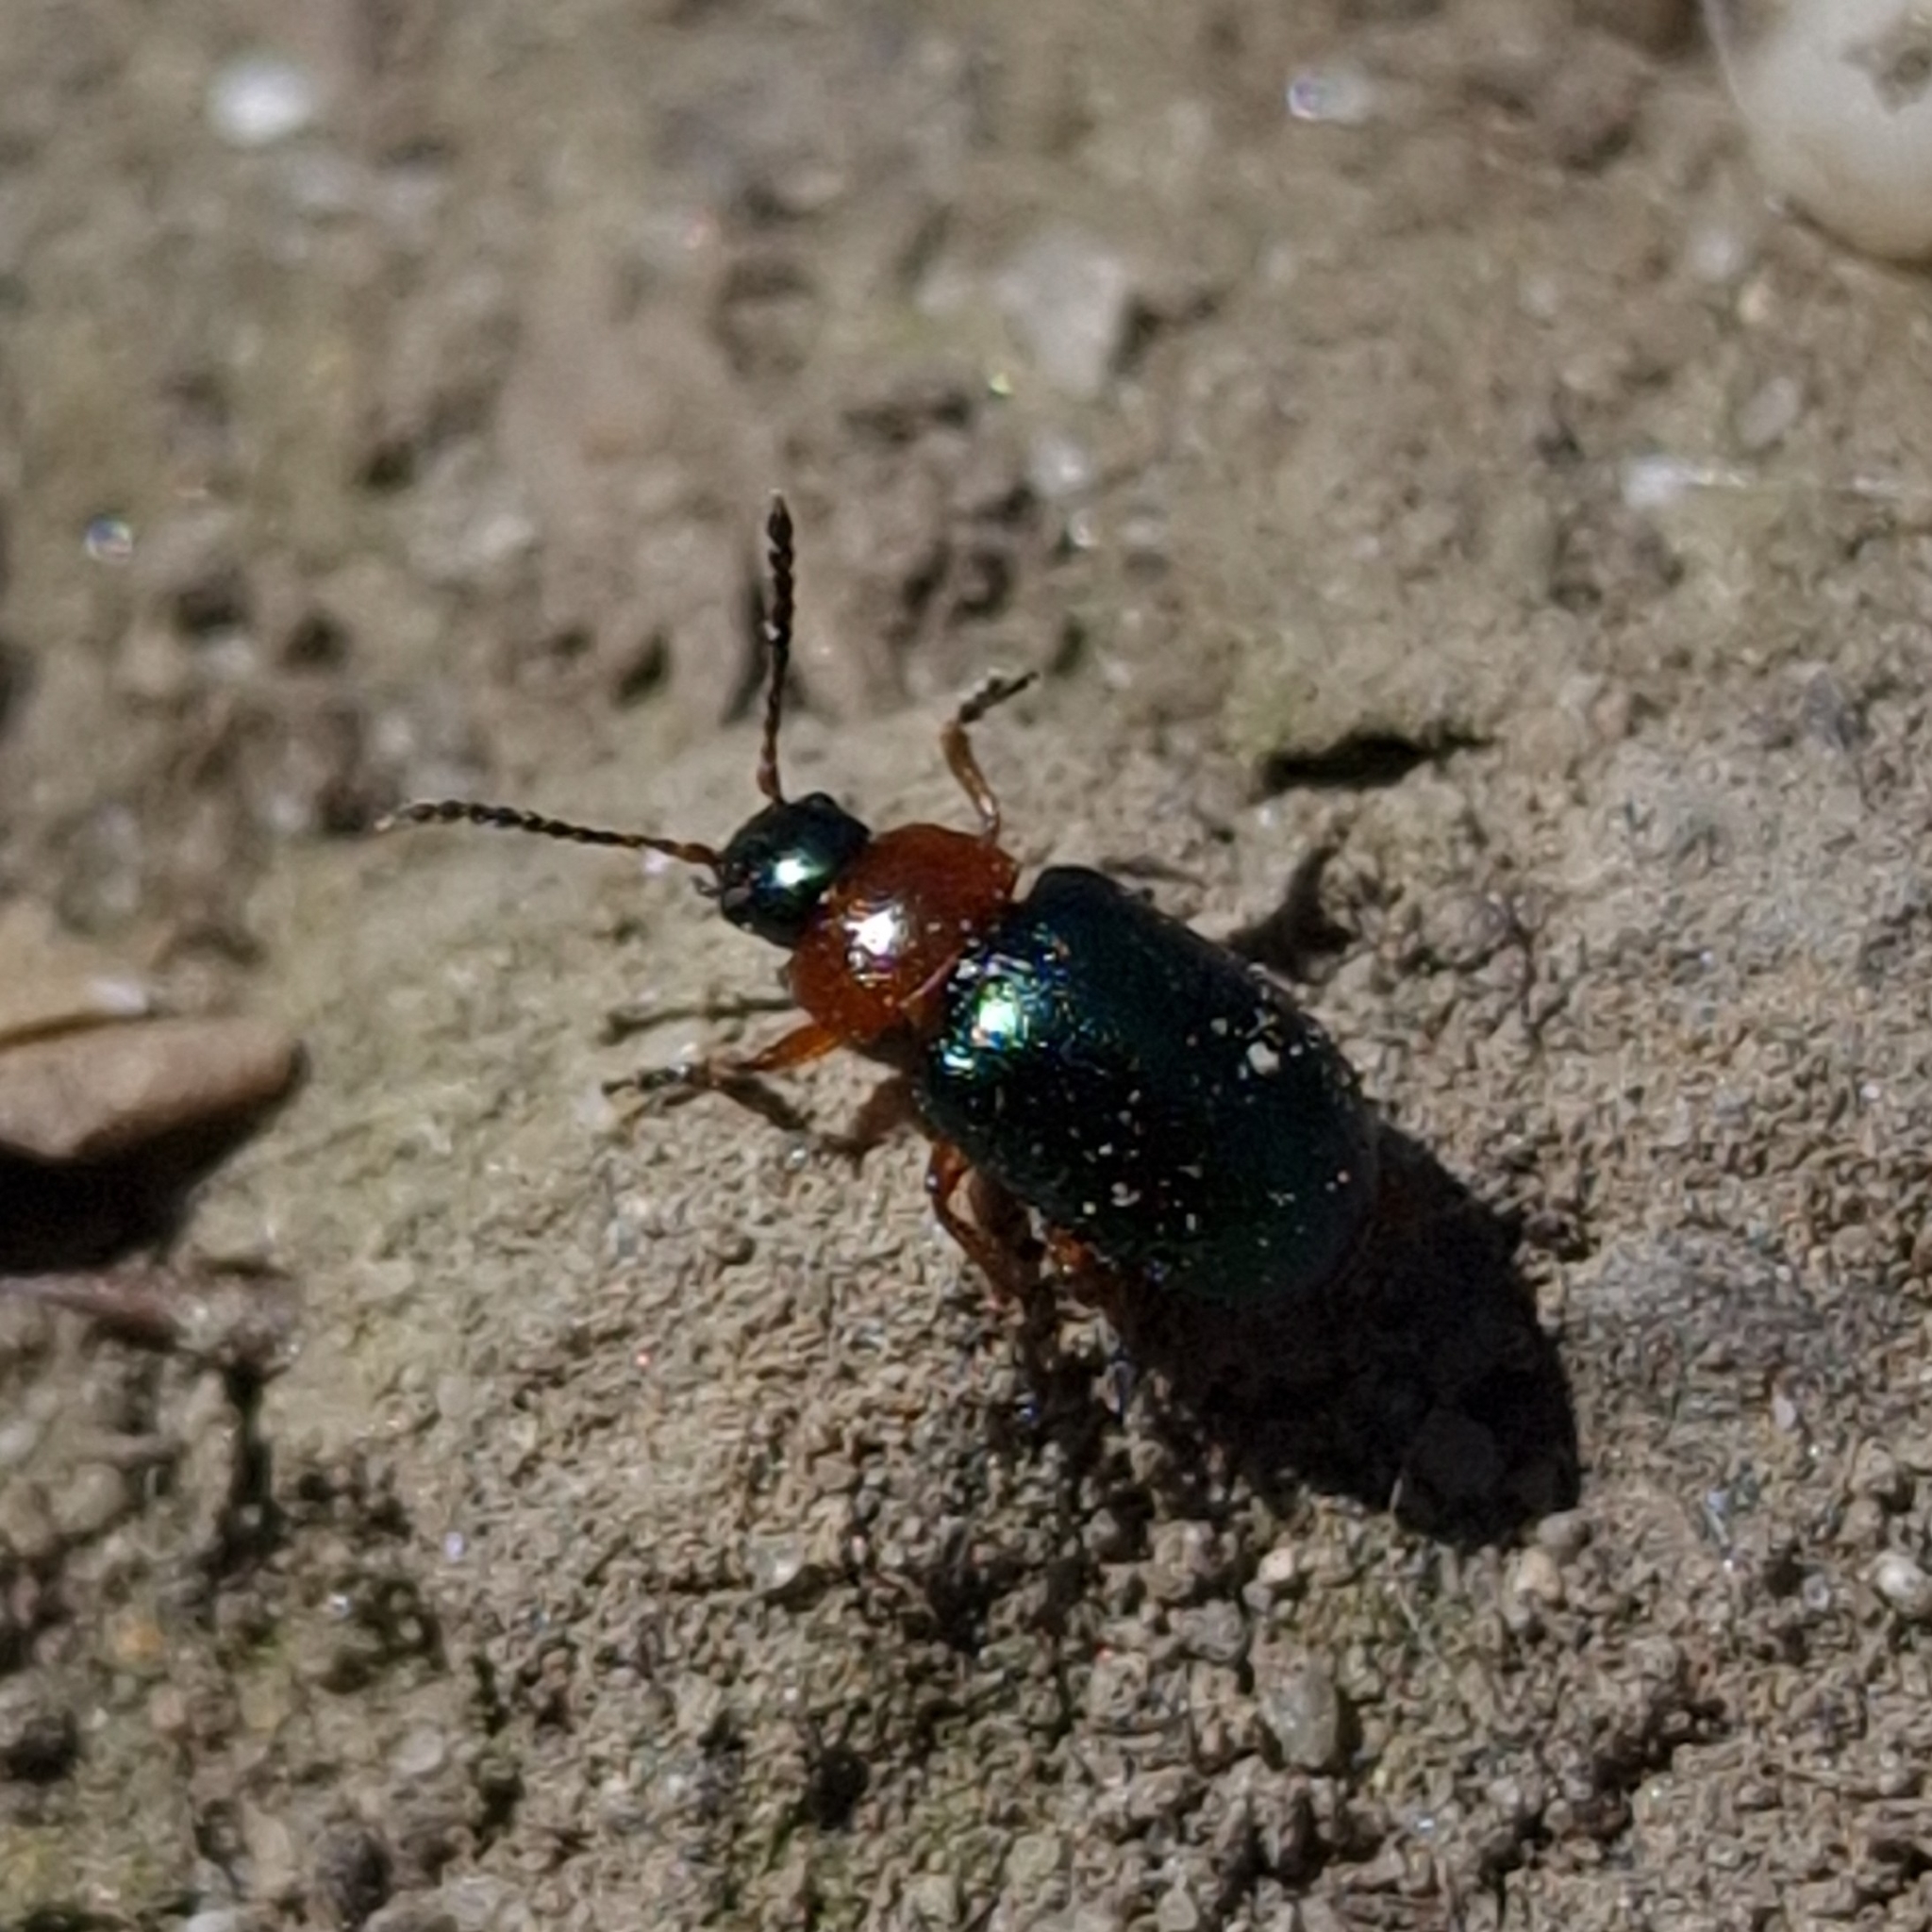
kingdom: Animalia
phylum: Arthropoda
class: Insecta
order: Coleoptera
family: Chrysomelidae
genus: Gastrophysa
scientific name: Gastrophysa polygoni
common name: Knotweed leaf beetle
